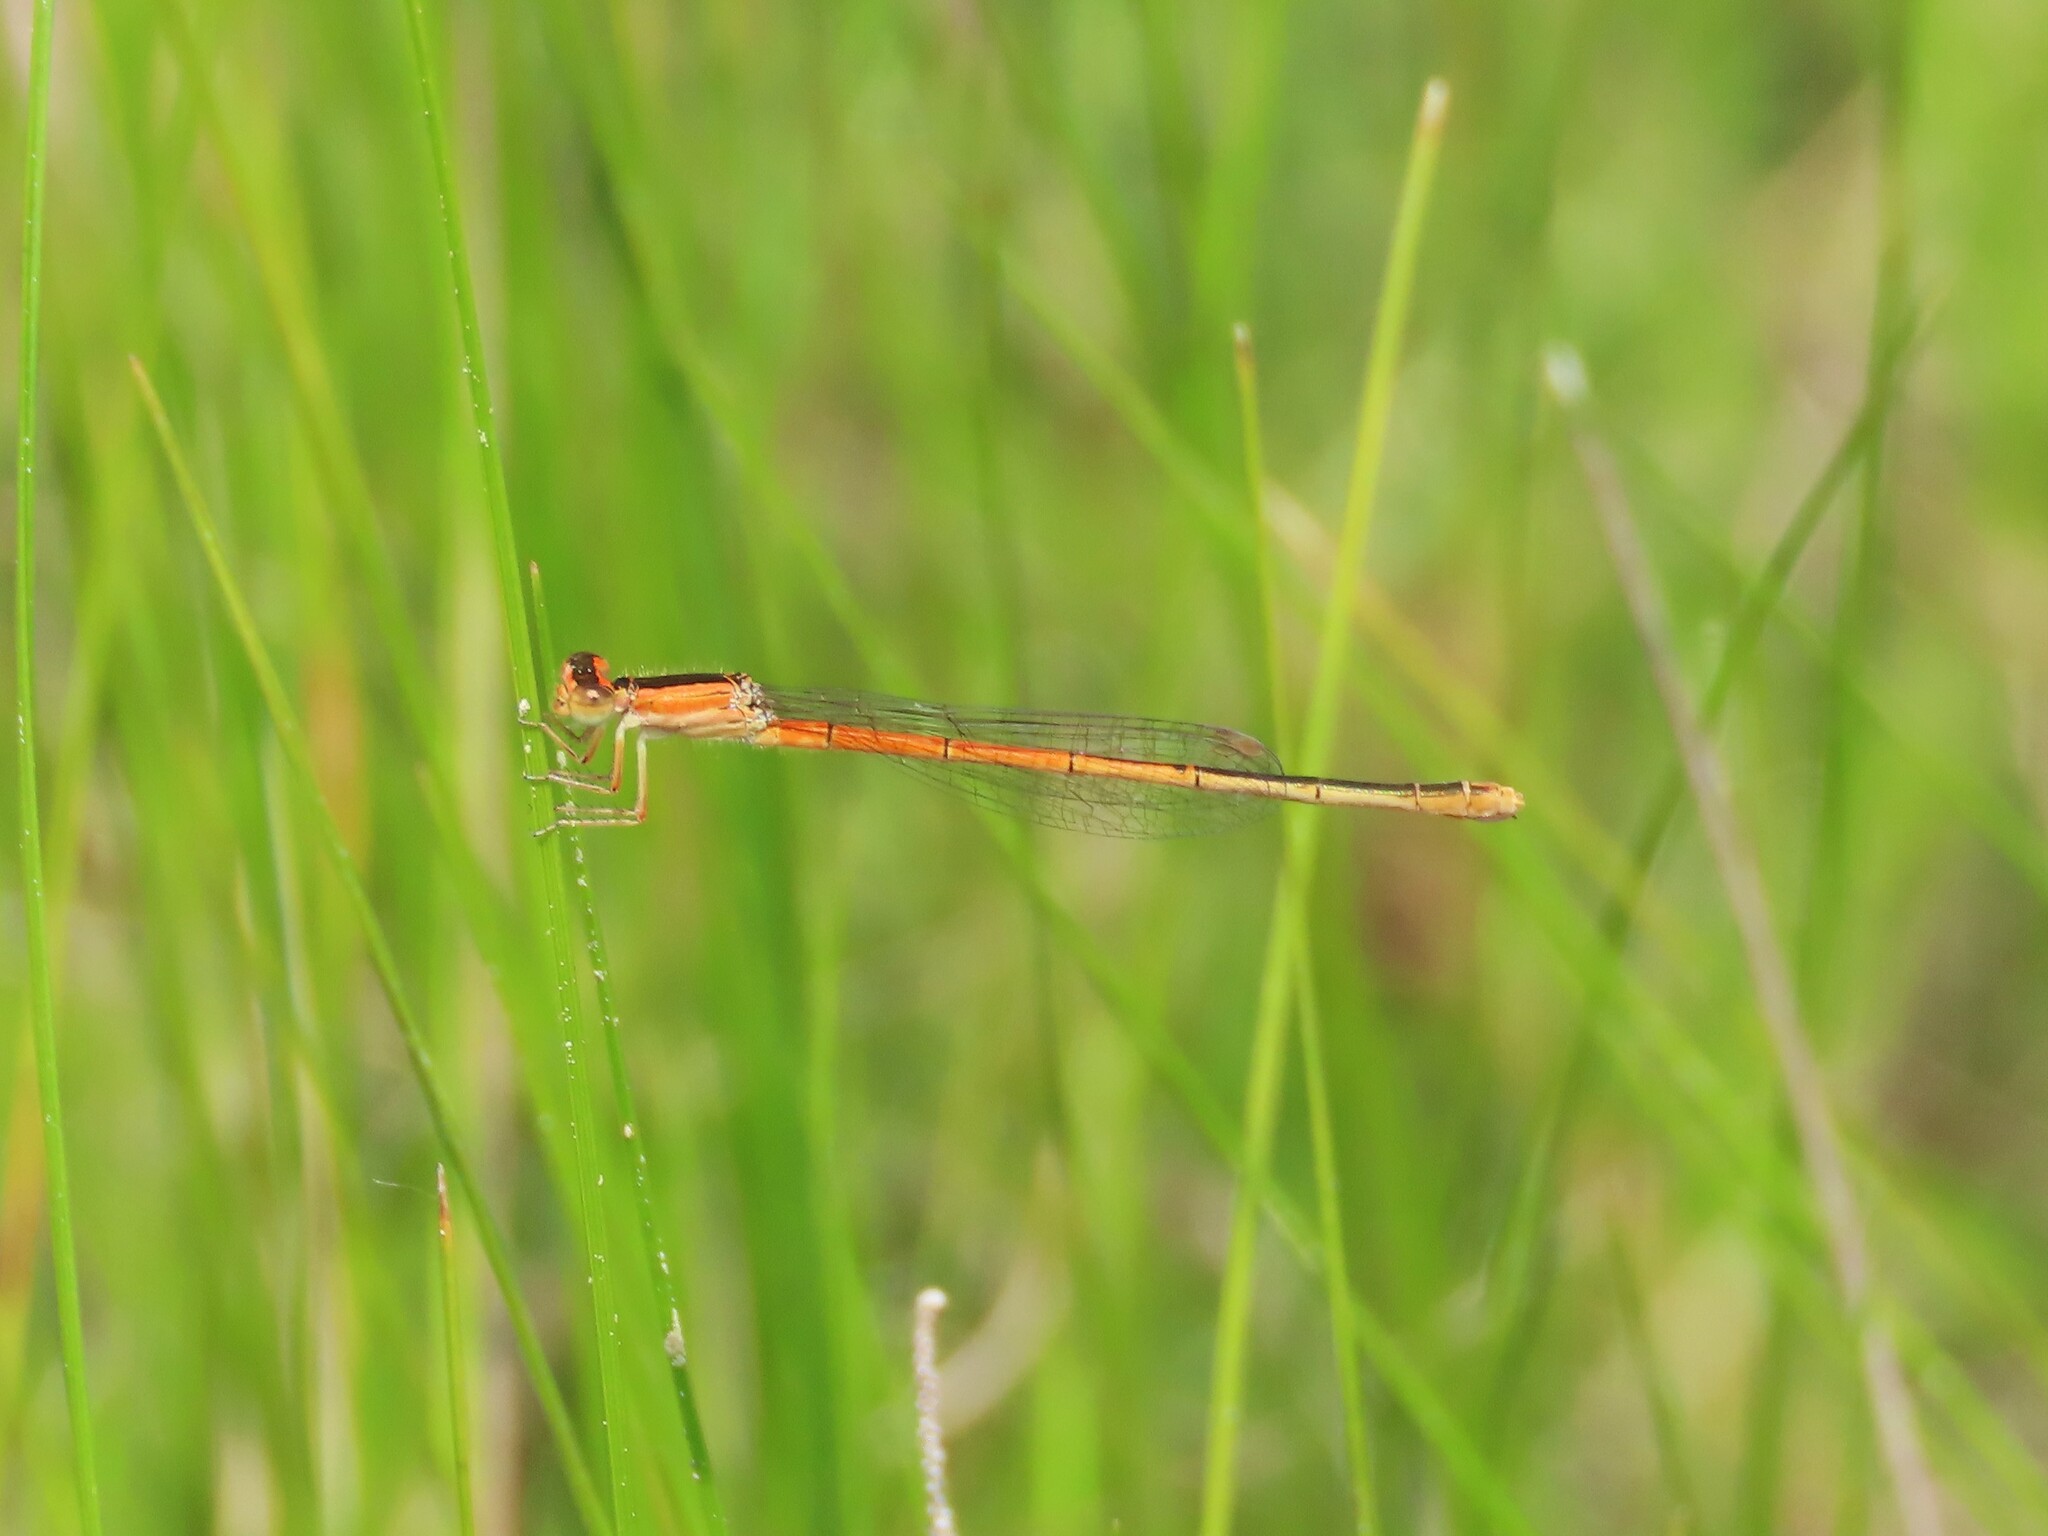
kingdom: Animalia
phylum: Arthropoda
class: Insecta
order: Odonata
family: Coenagrionidae
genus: Ischnura
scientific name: Ischnura hastata
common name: Citrine forktail
